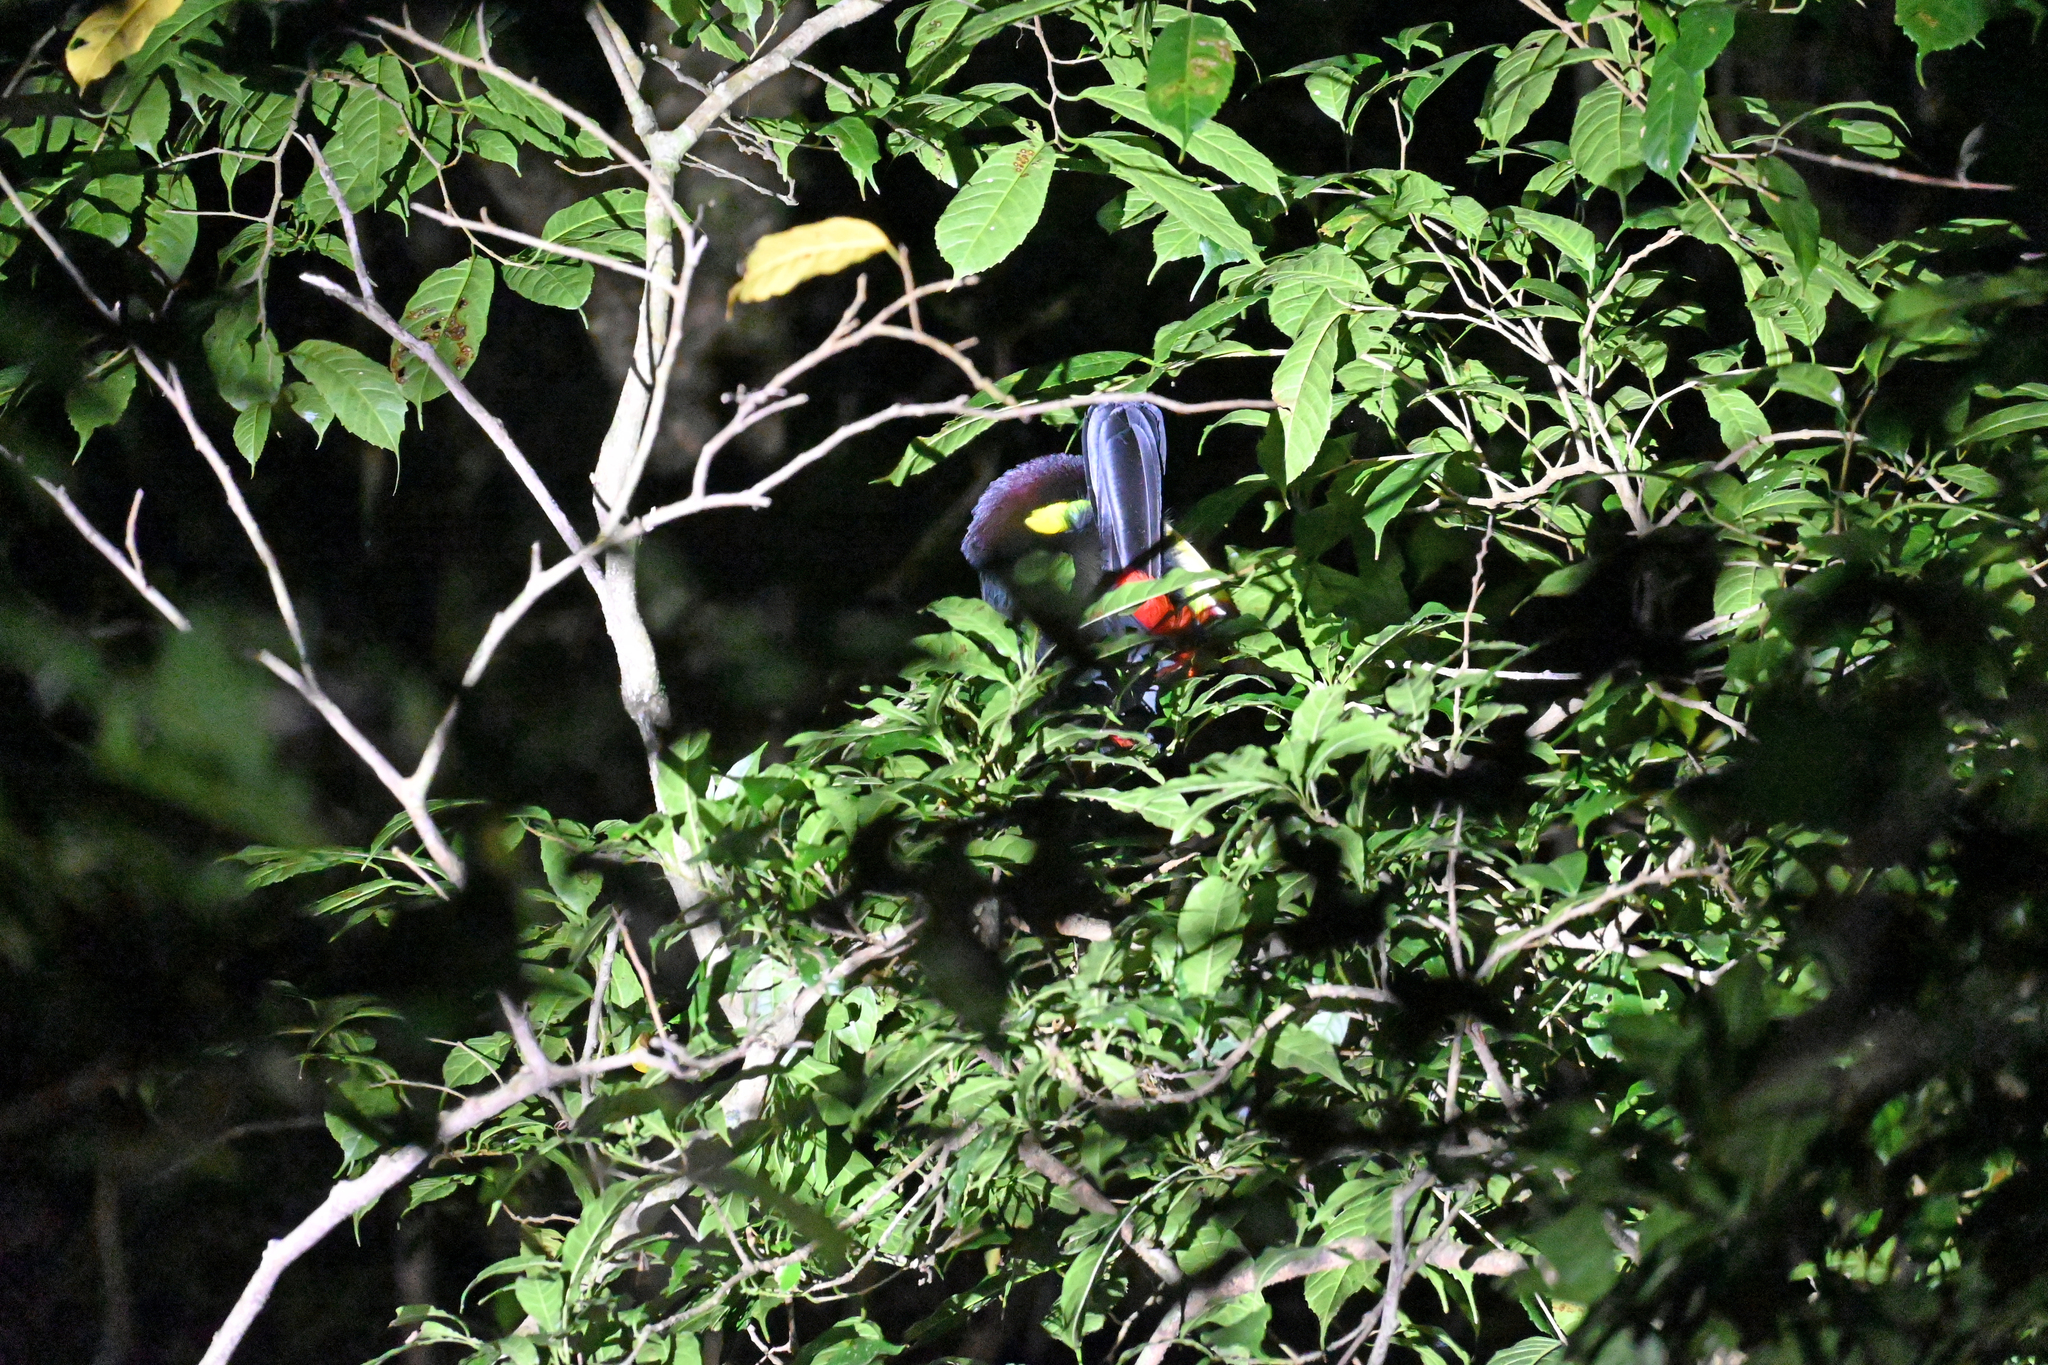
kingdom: Animalia
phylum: Chordata
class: Aves
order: Piciformes
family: Ramphastidae
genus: Selenidera
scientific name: Selenidera spectabilis
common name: Yellow-eared toucanet
